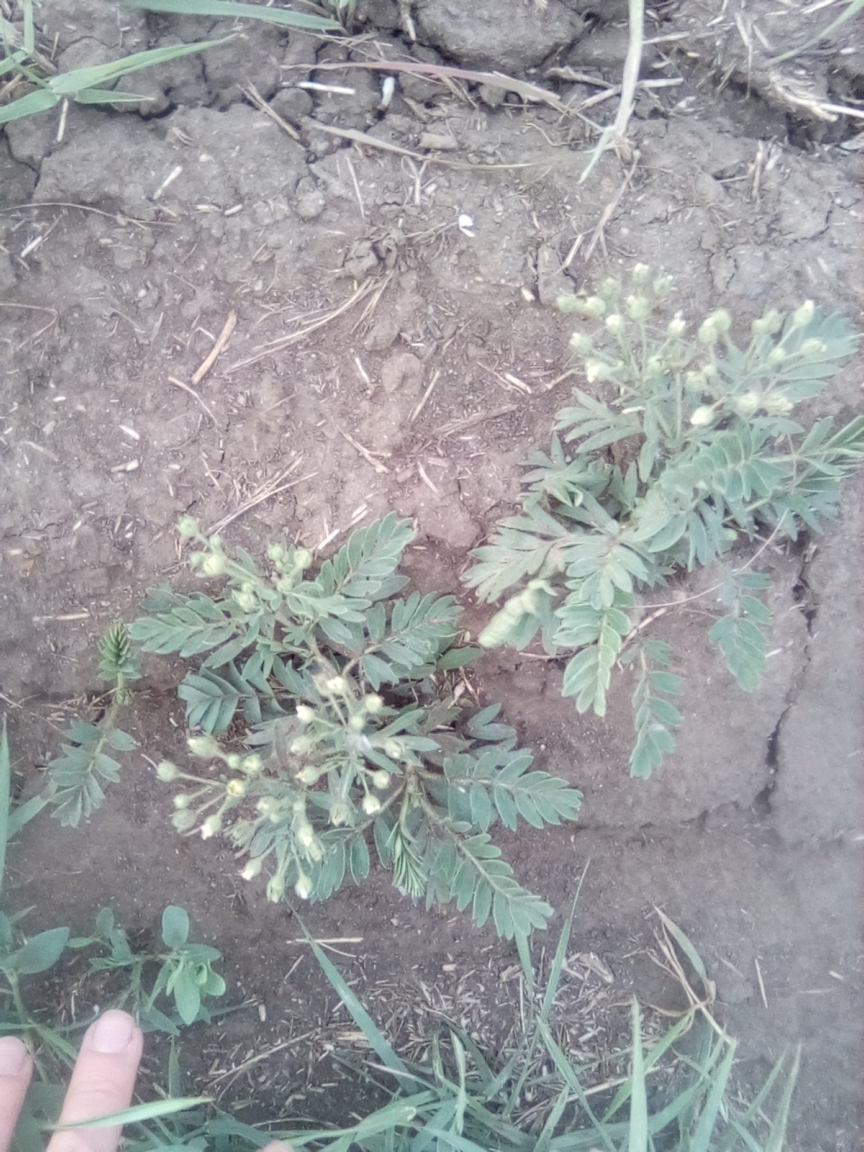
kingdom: Plantae
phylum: Tracheophyta
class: Magnoliopsida
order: Rosales
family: Rosaceae
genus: Sibbaldianthe
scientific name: Sibbaldianthe bifurca
